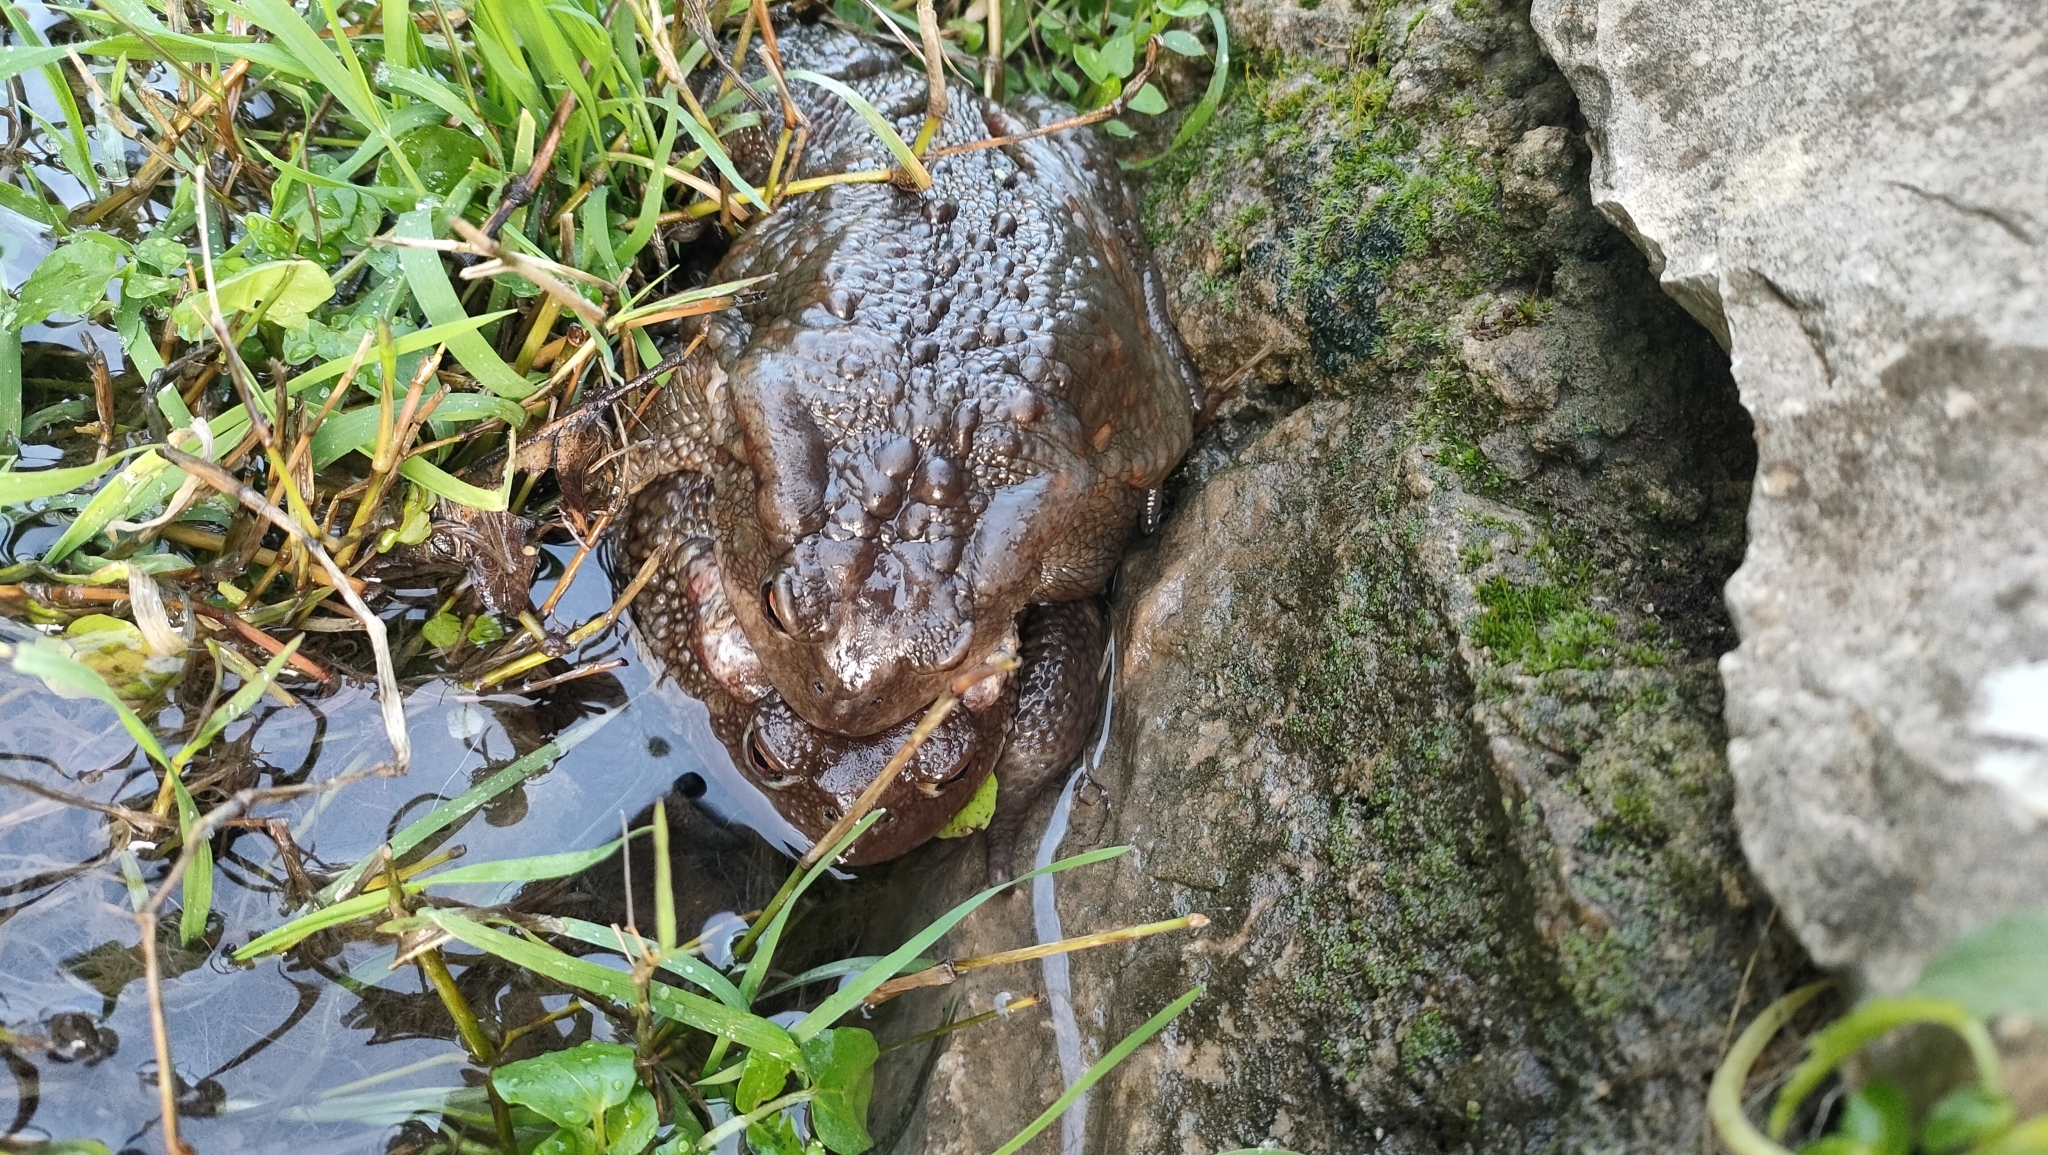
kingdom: Animalia
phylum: Chordata
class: Amphibia
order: Anura
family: Bufonidae
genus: Bufo
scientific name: Bufo bufo
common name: Common toad
